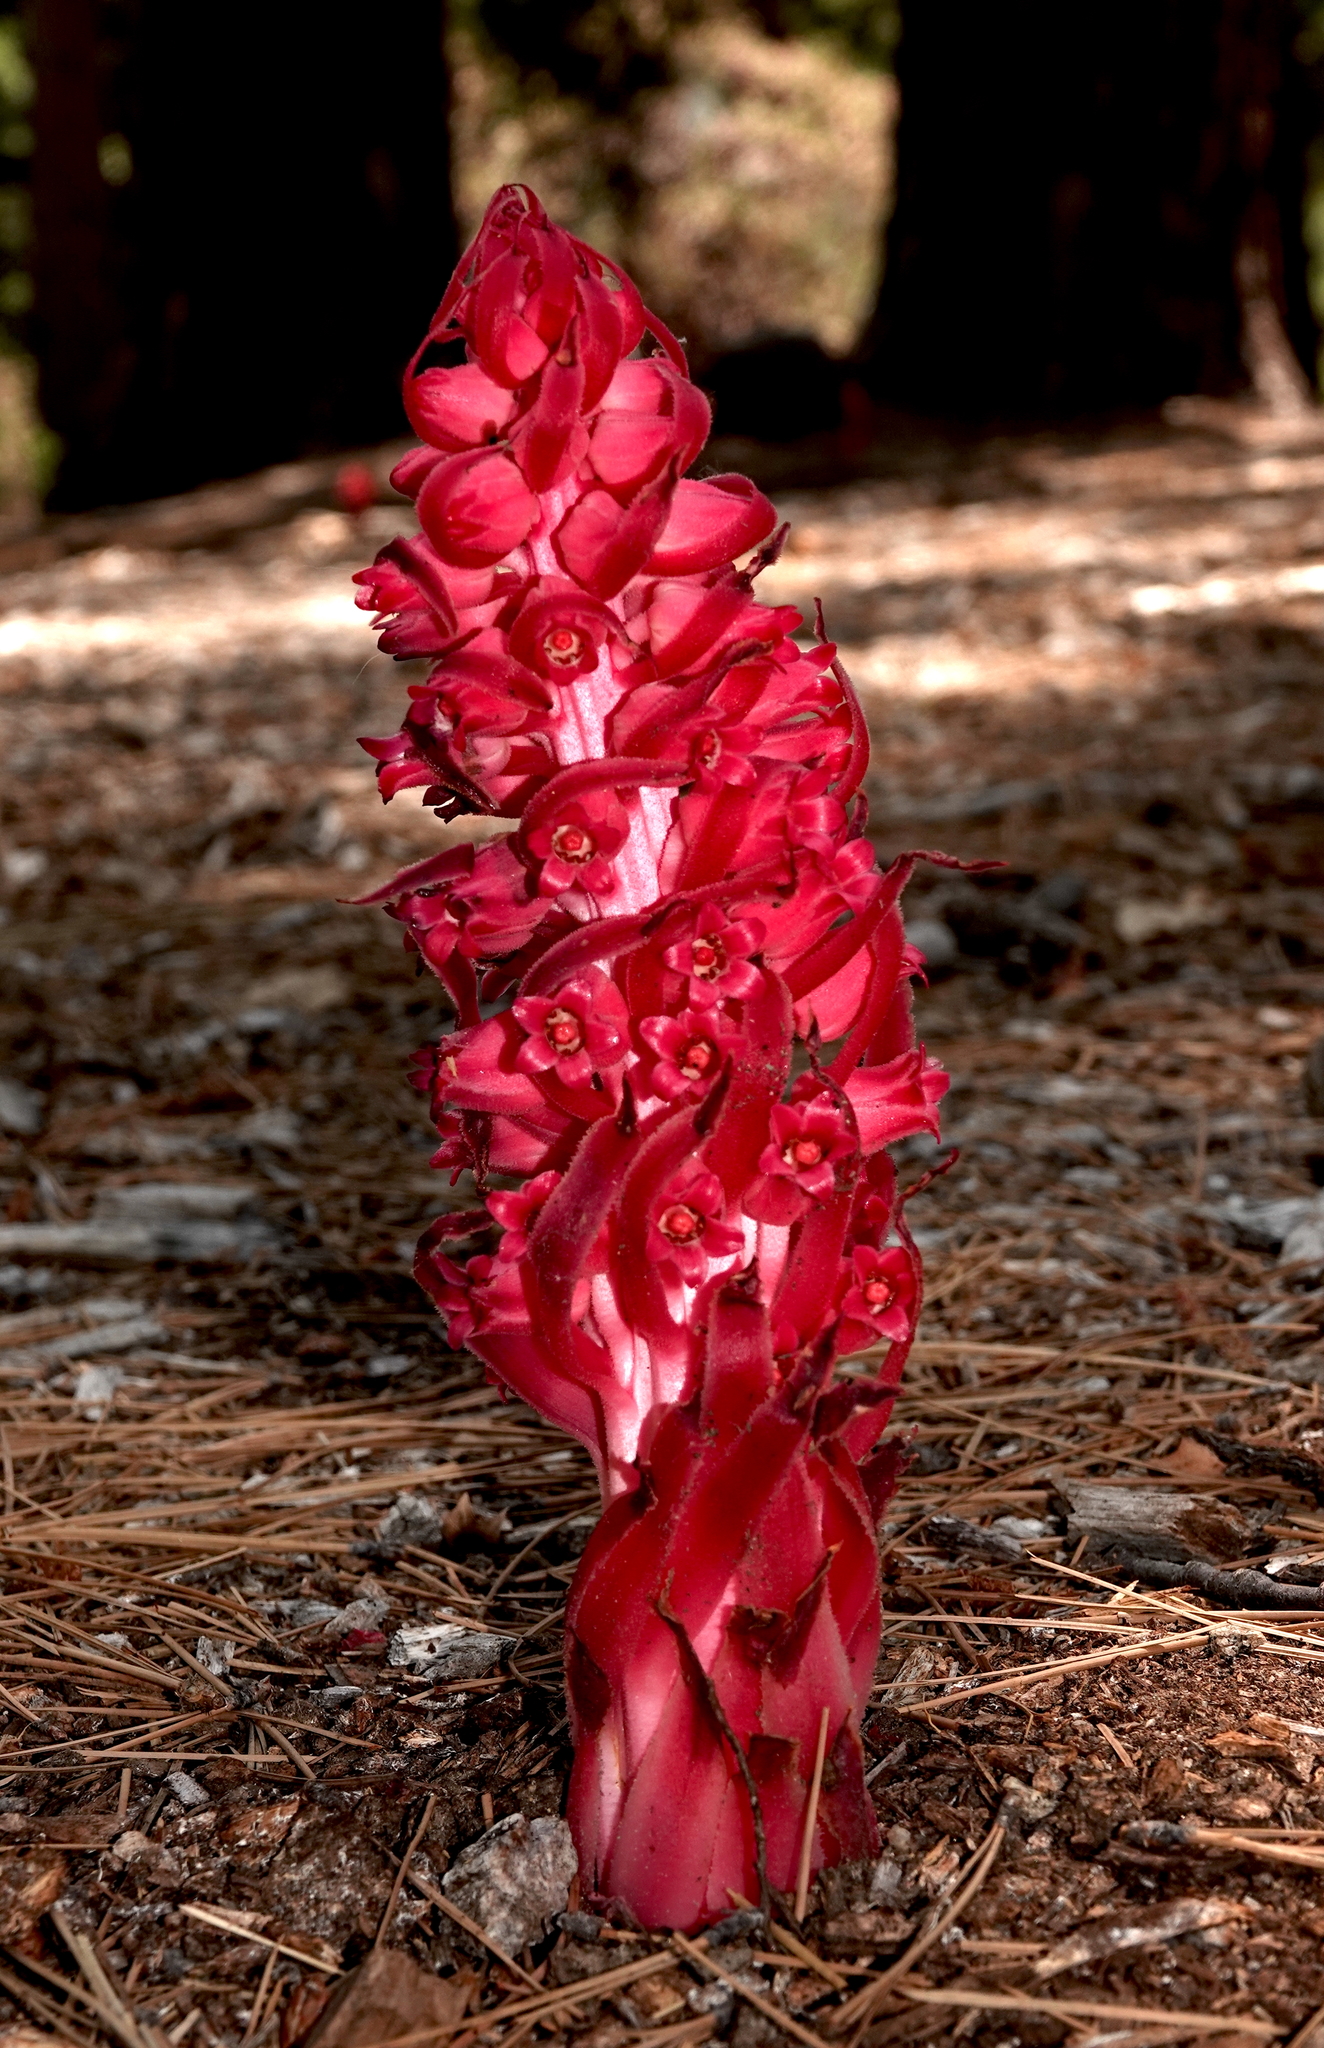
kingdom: Plantae
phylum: Tracheophyta
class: Magnoliopsida
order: Ericales
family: Ericaceae
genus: Sarcodes
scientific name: Sarcodes sanguinea
